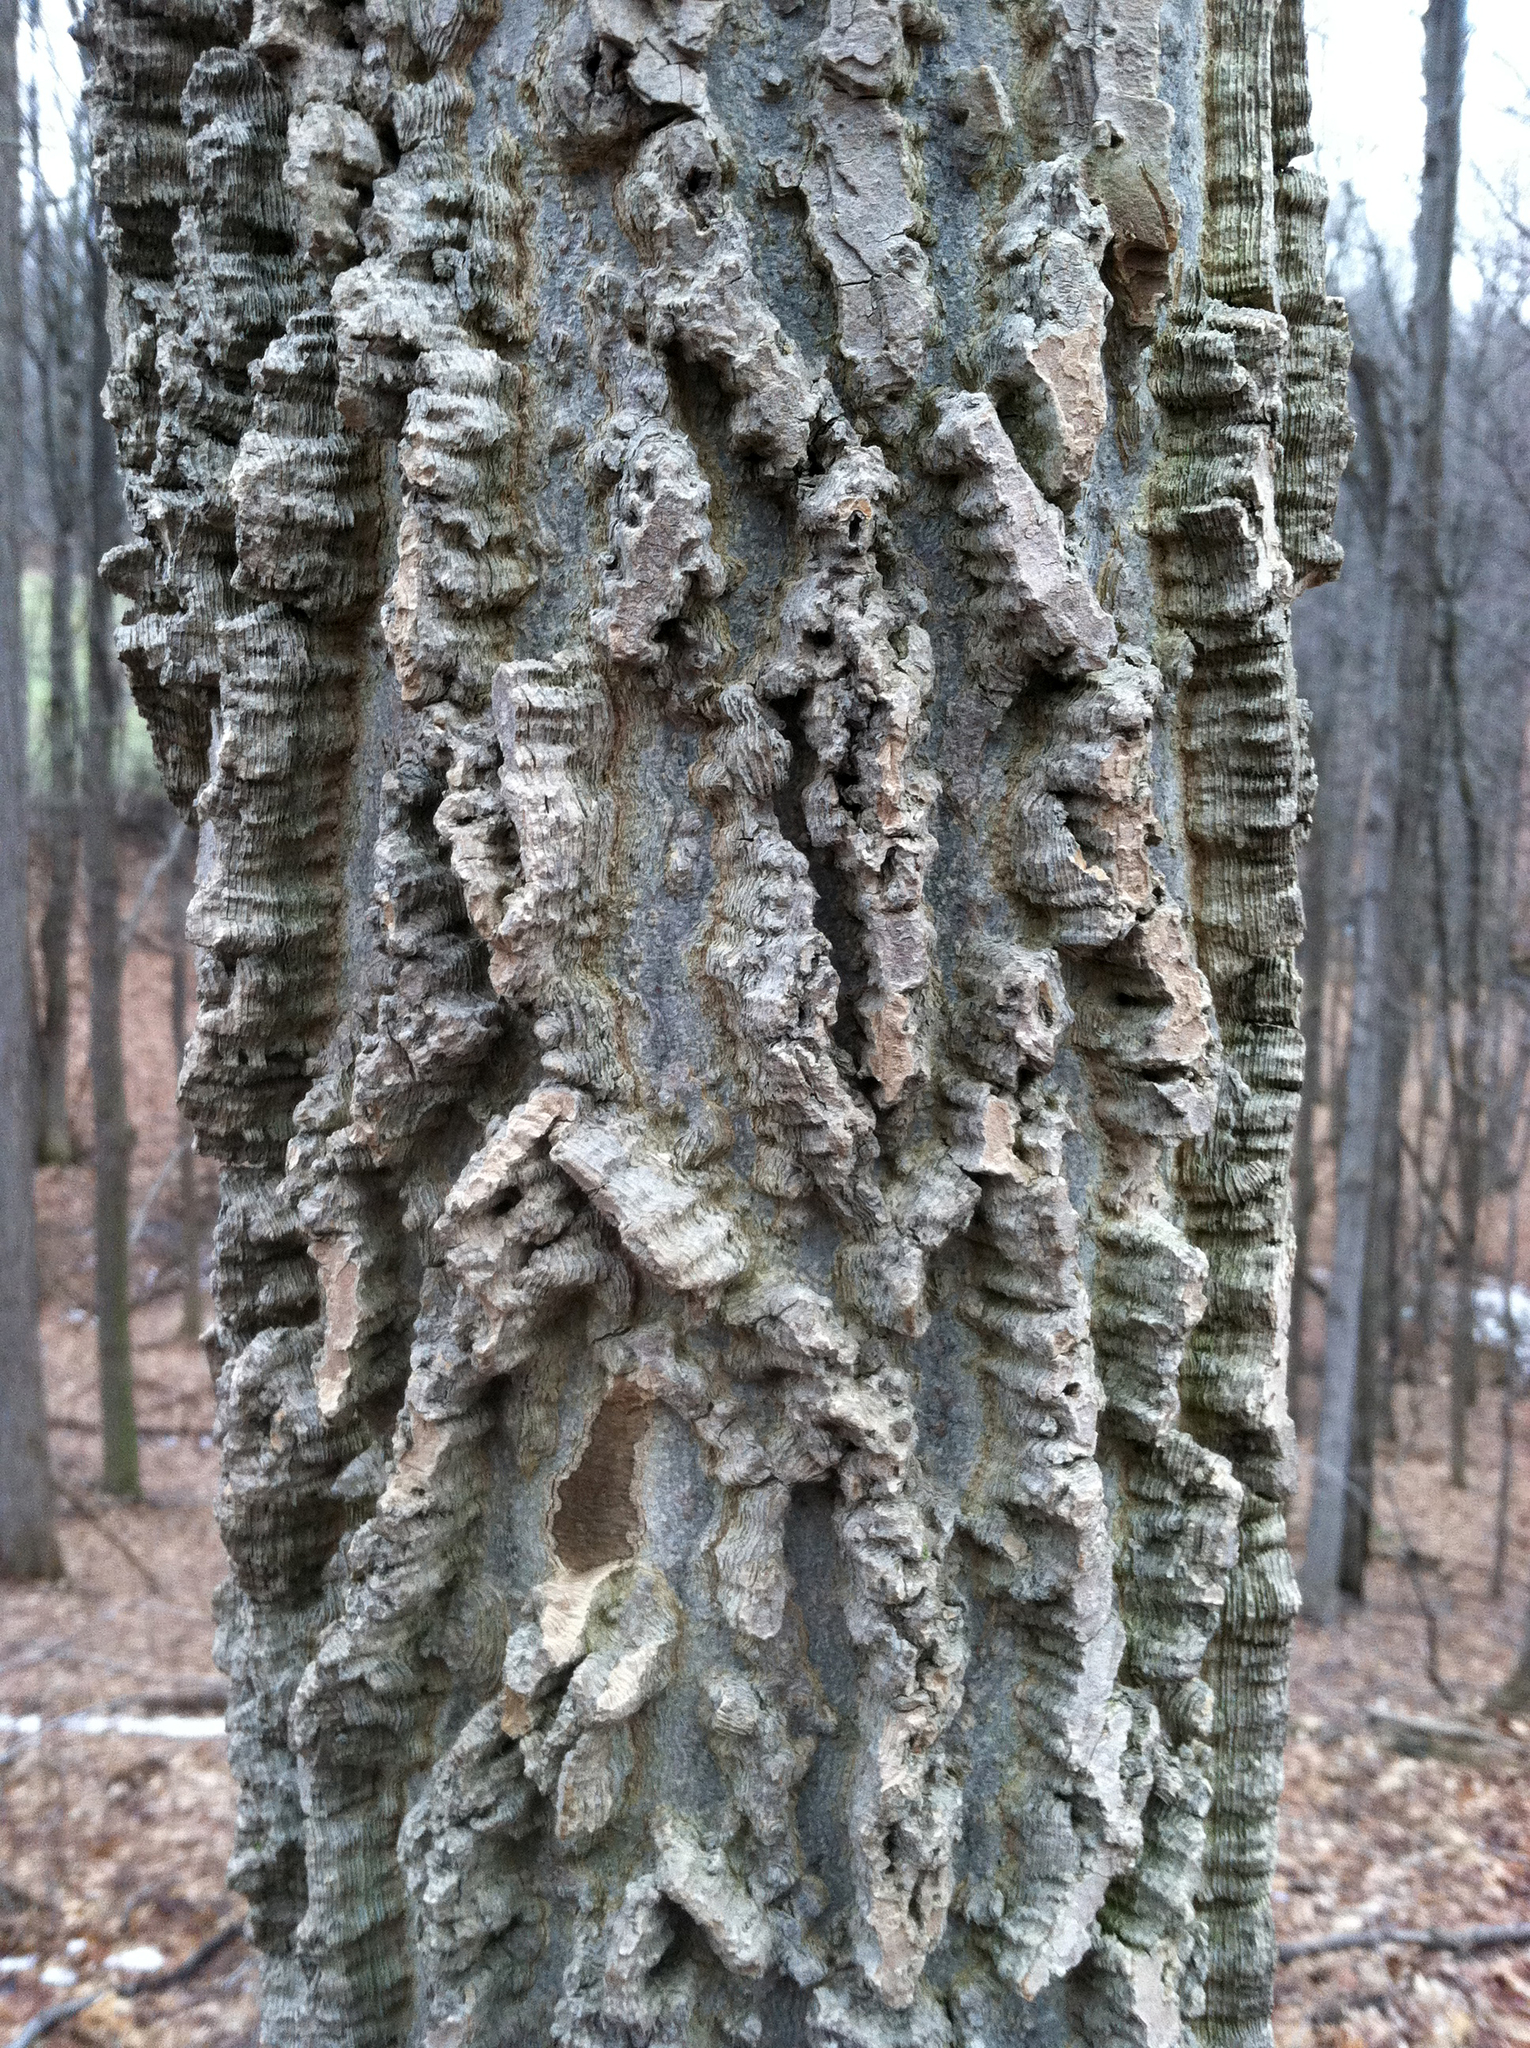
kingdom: Plantae
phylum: Tracheophyta
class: Magnoliopsida
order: Rosales
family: Cannabaceae
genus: Celtis
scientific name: Celtis occidentalis
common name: Common hackberry
